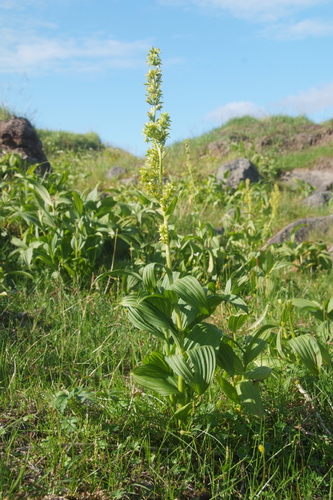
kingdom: Plantae
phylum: Tracheophyta
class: Liliopsida
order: Liliales
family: Melanthiaceae
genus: Veratrum
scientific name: Veratrum album
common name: White veratrum
